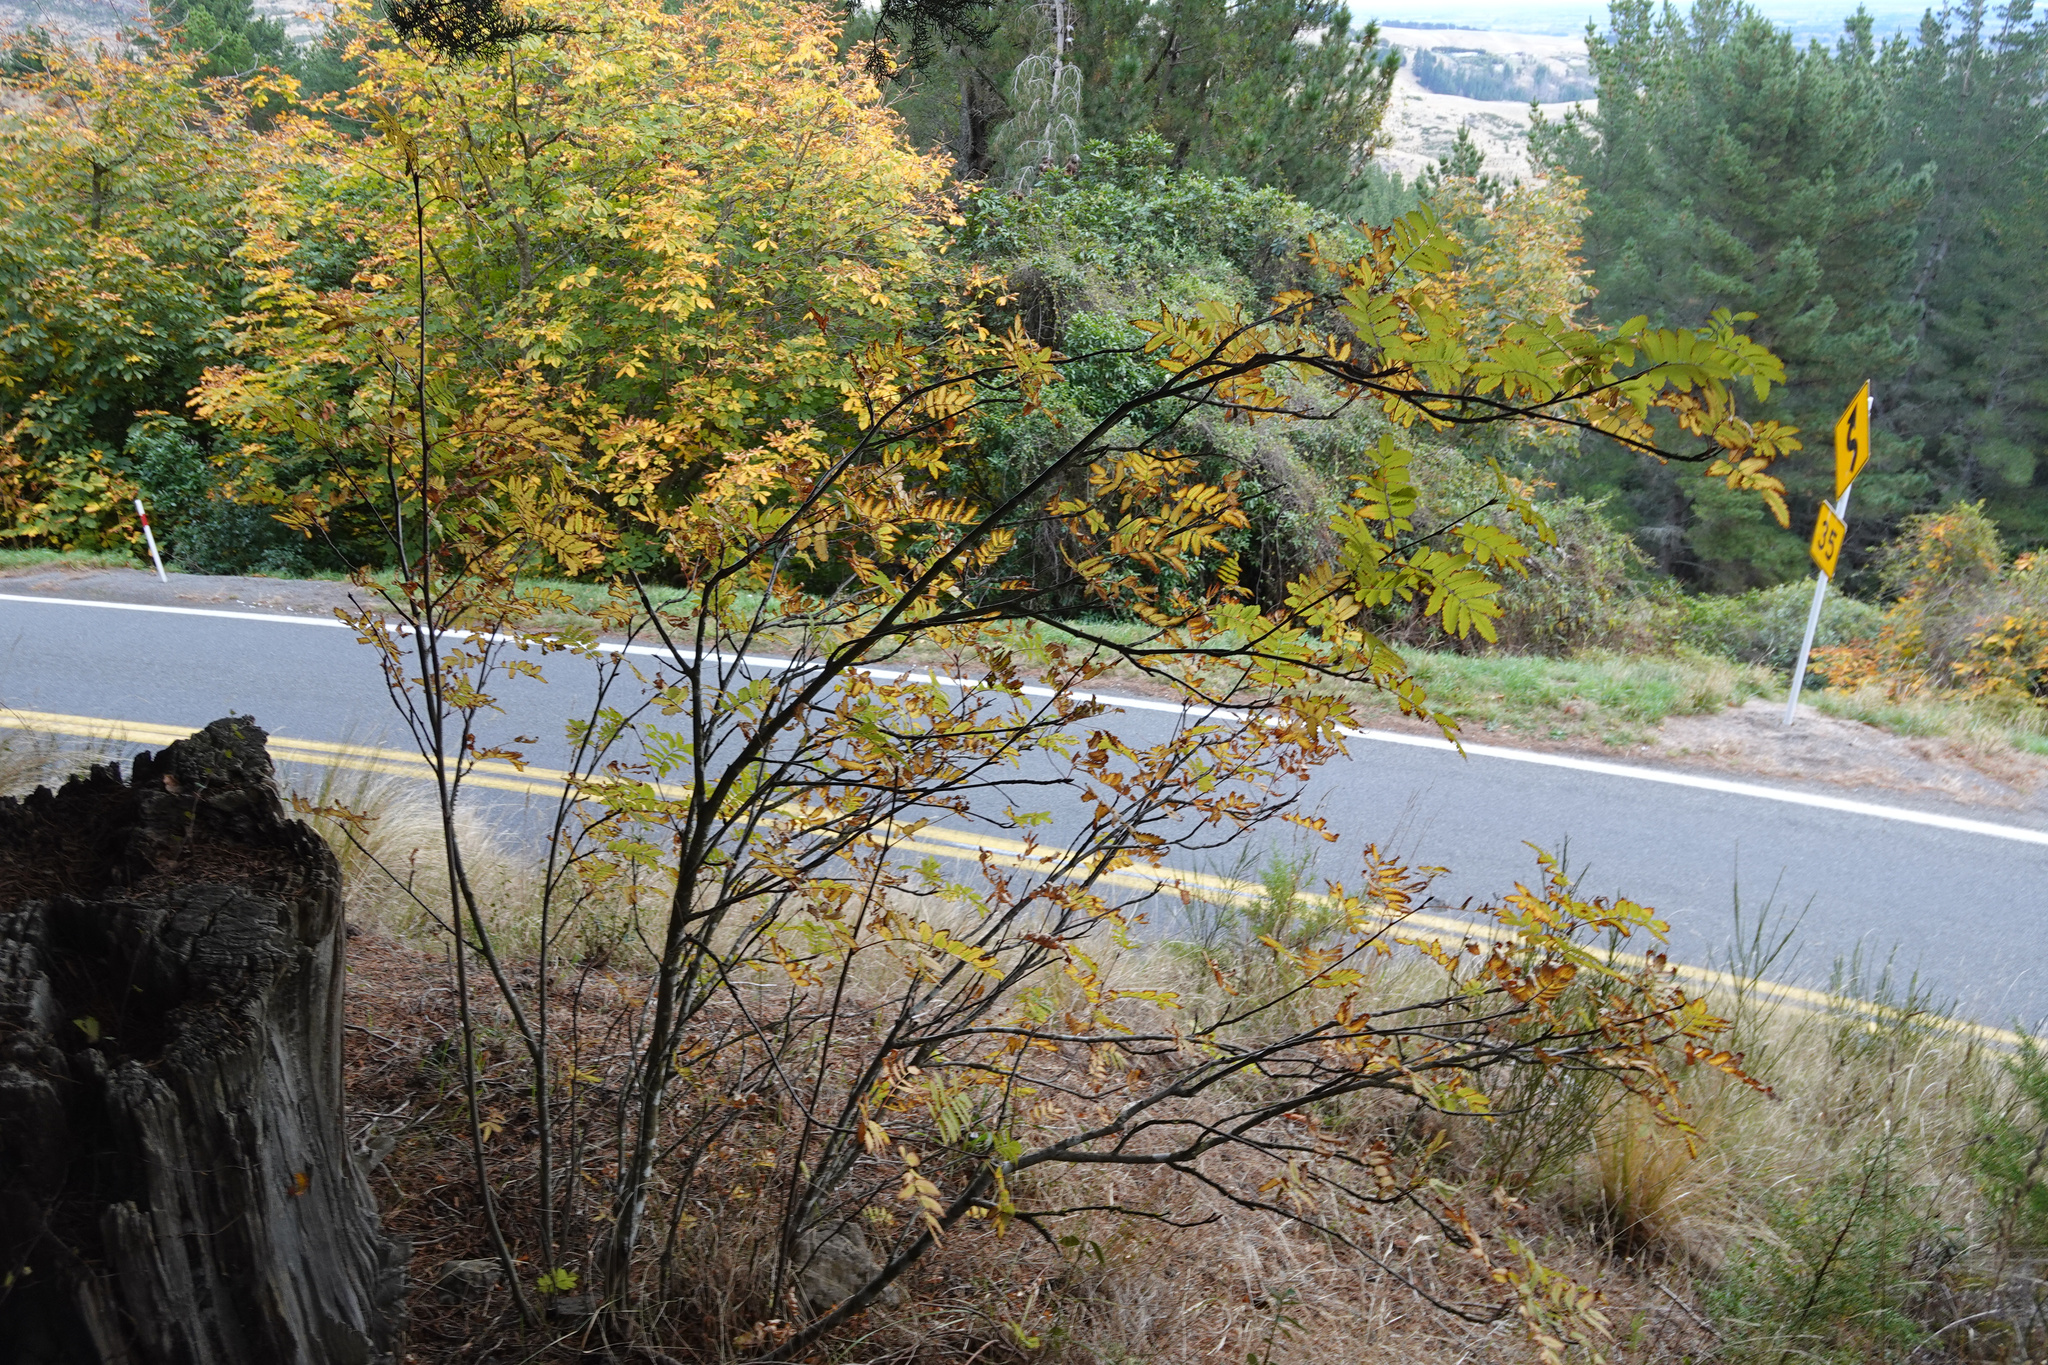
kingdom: Plantae
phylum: Tracheophyta
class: Magnoliopsida
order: Rosales
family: Rosaceae
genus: Sorbus
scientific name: Sorbus aucuparia
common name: Rowan
